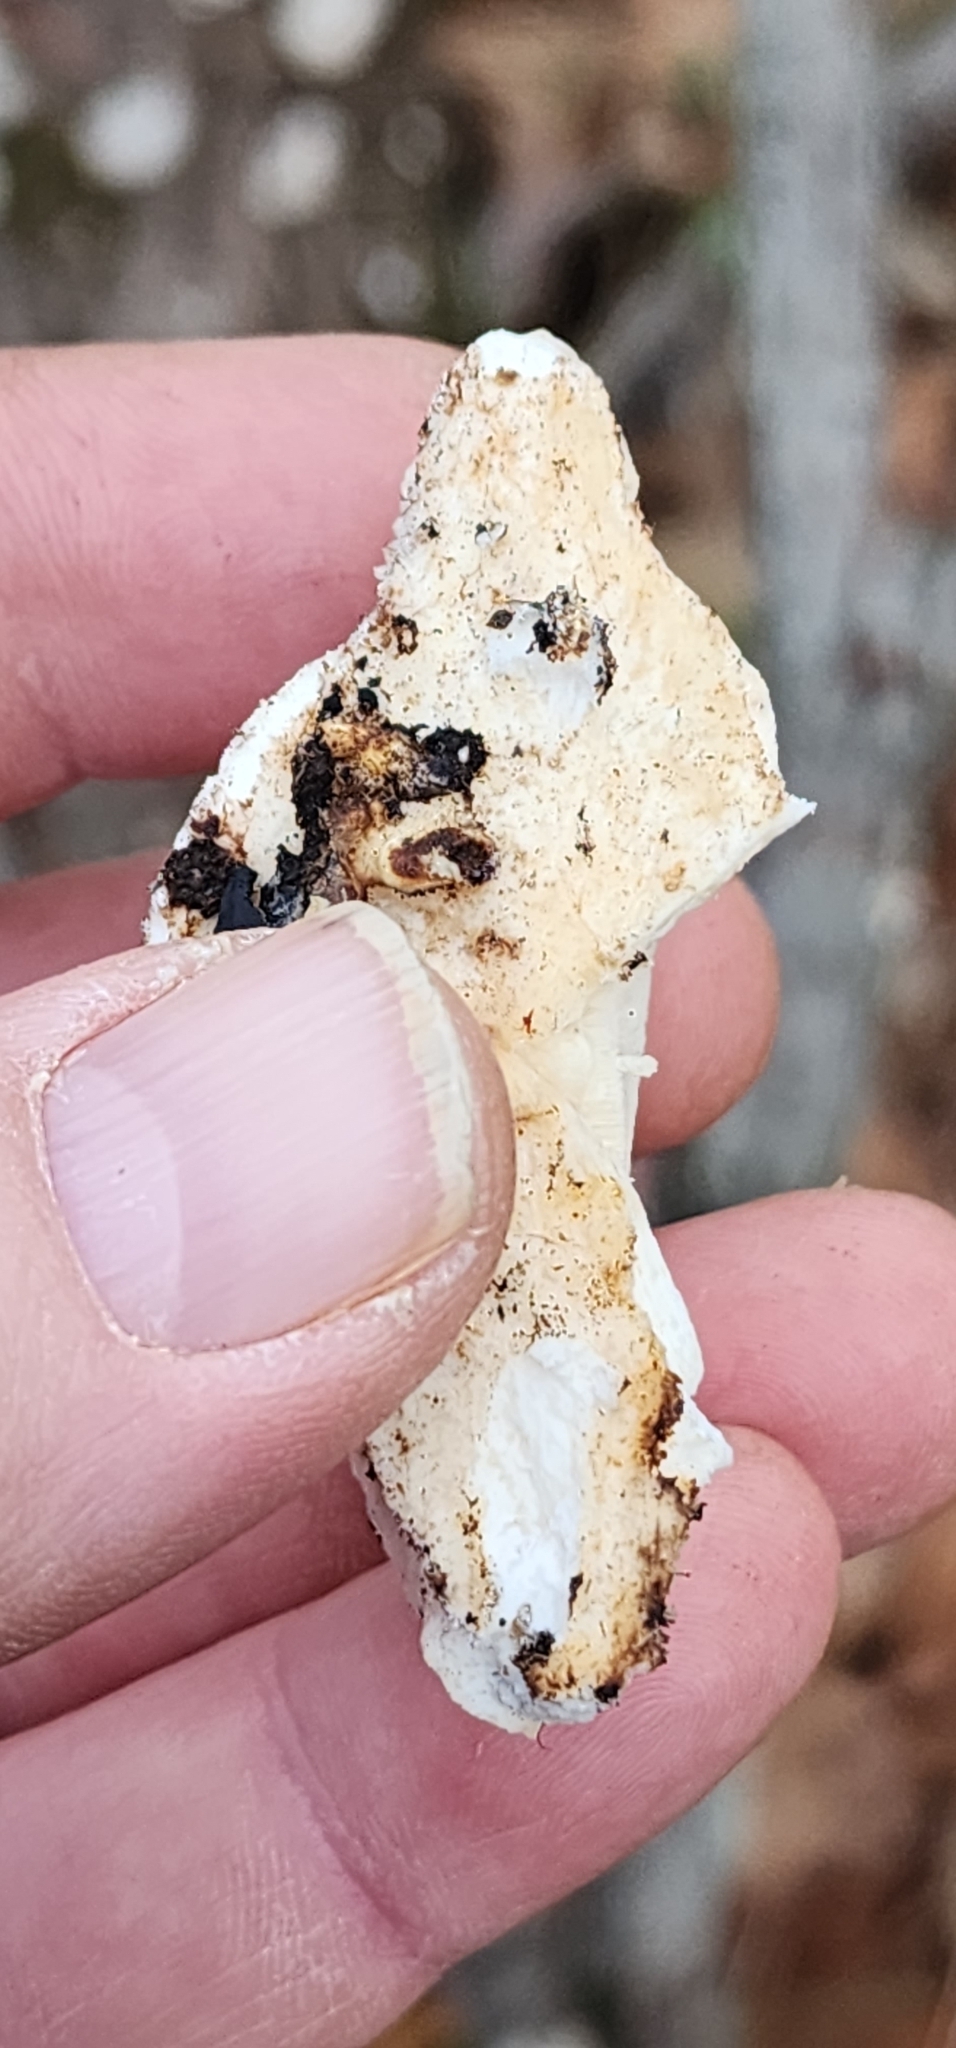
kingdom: Fungi
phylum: Basidiomycota
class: Agaricomycetes
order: Polyporales
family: Incrustoporiaceae
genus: Tyromyces
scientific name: Tyromyces chioneus
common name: White cheese polypore
